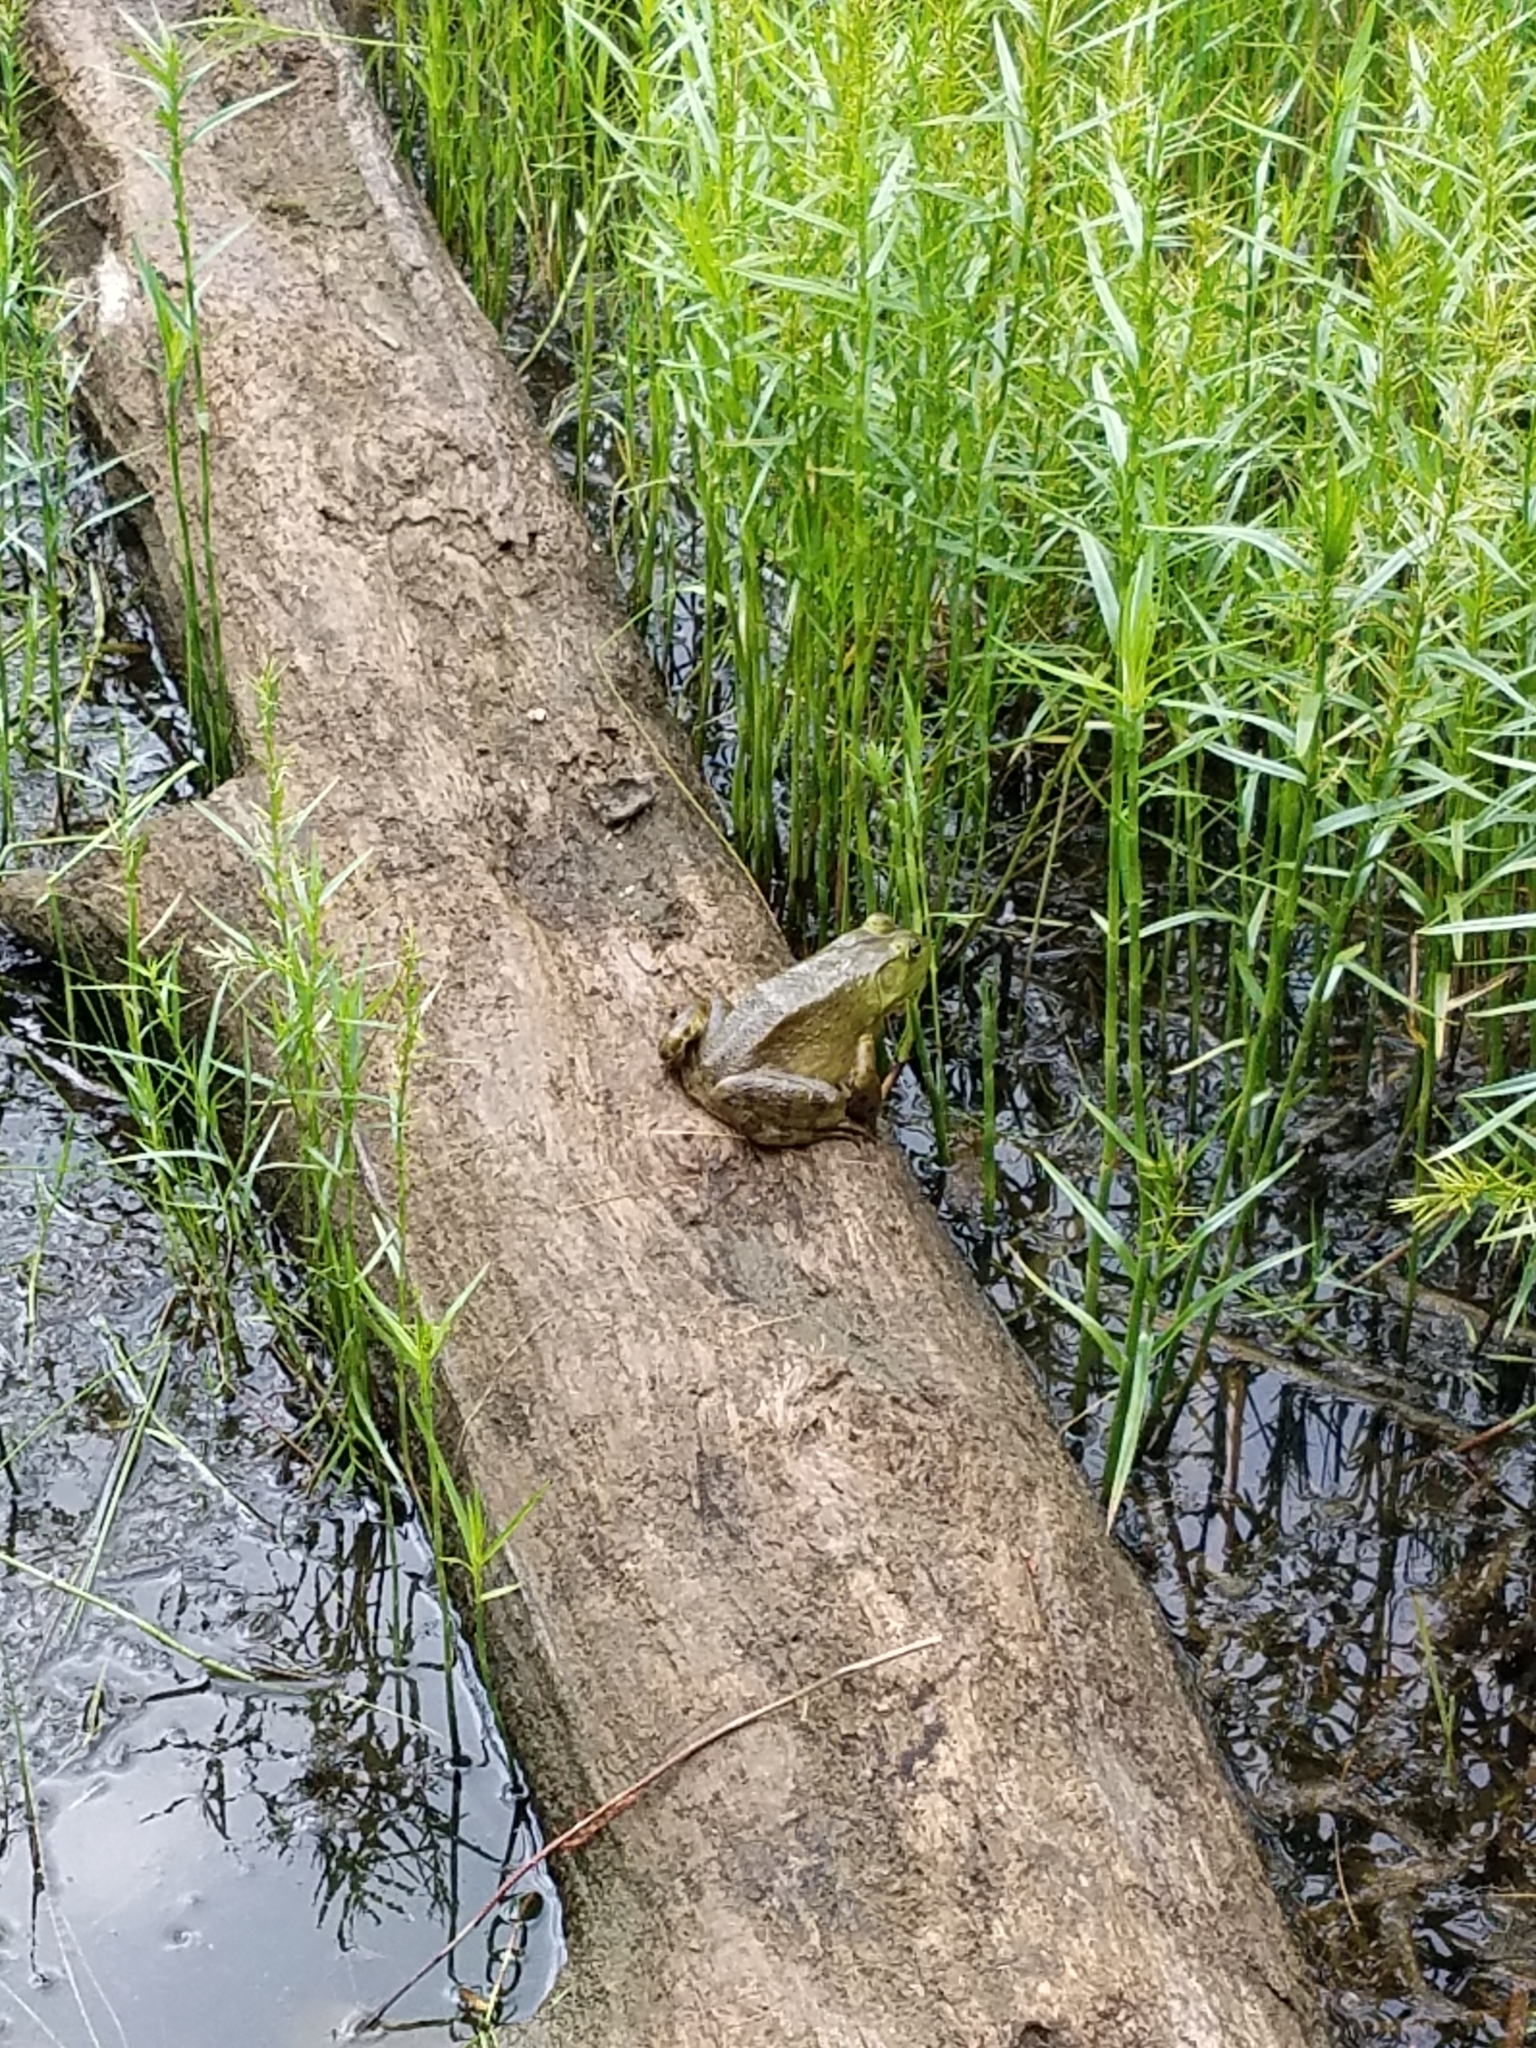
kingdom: Animalia
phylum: Chordata
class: Amphibia
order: Anura
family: Ranidae
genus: Lithobates
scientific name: Lithobates catesbeianus
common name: American bullfrog
